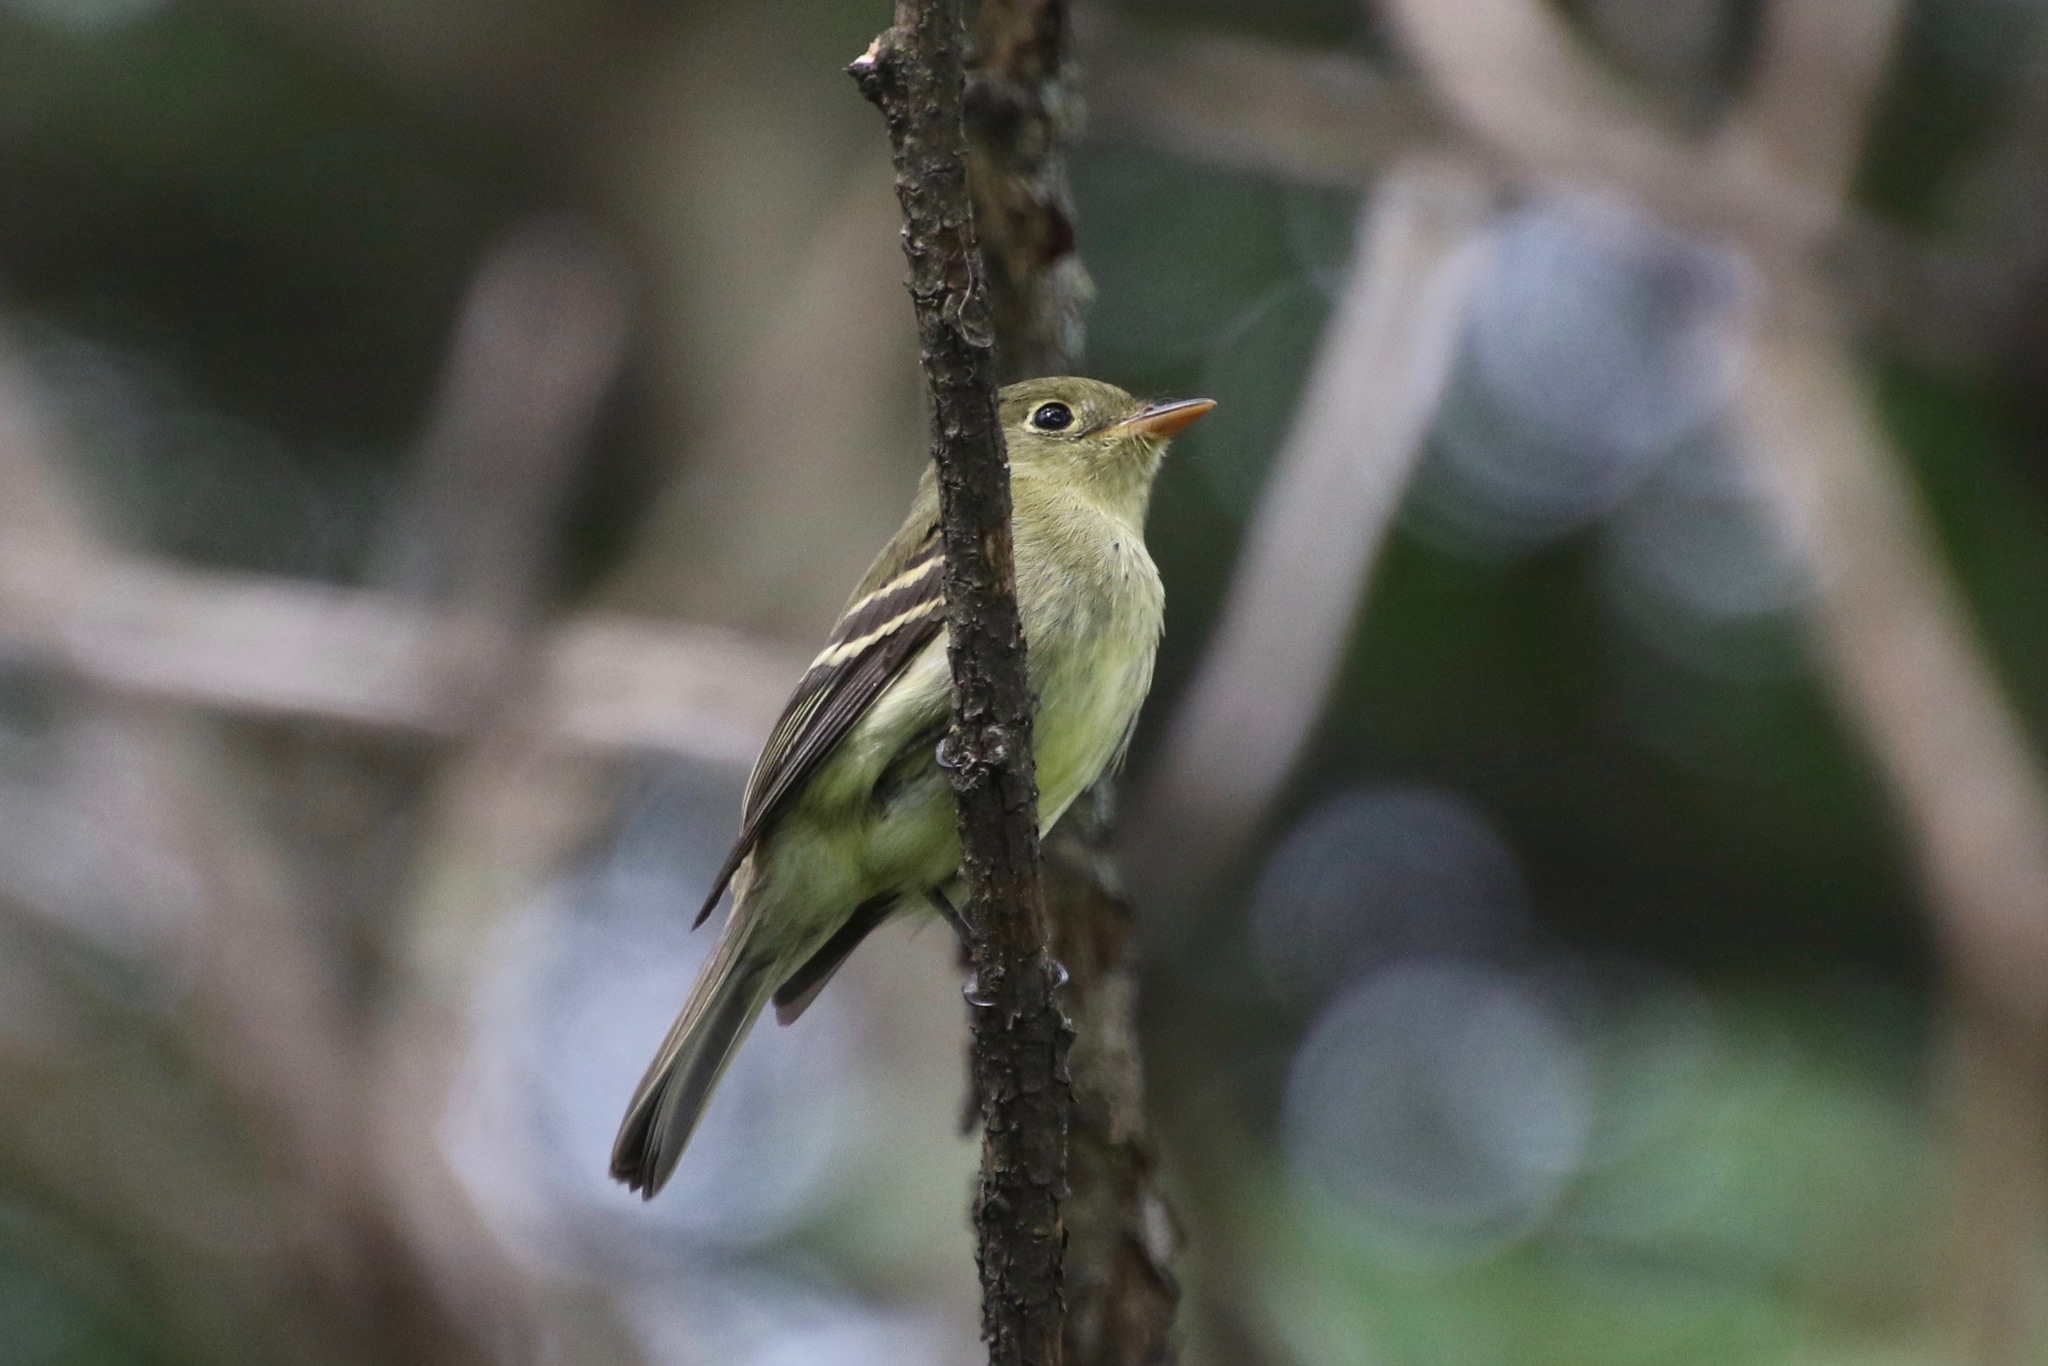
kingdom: Animalia
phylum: Chordata
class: Aves
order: Passeriformes
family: Tyrannidae
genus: Empidonax
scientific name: Empidonax flaviventris
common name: Yellow-bellied flycatcher
